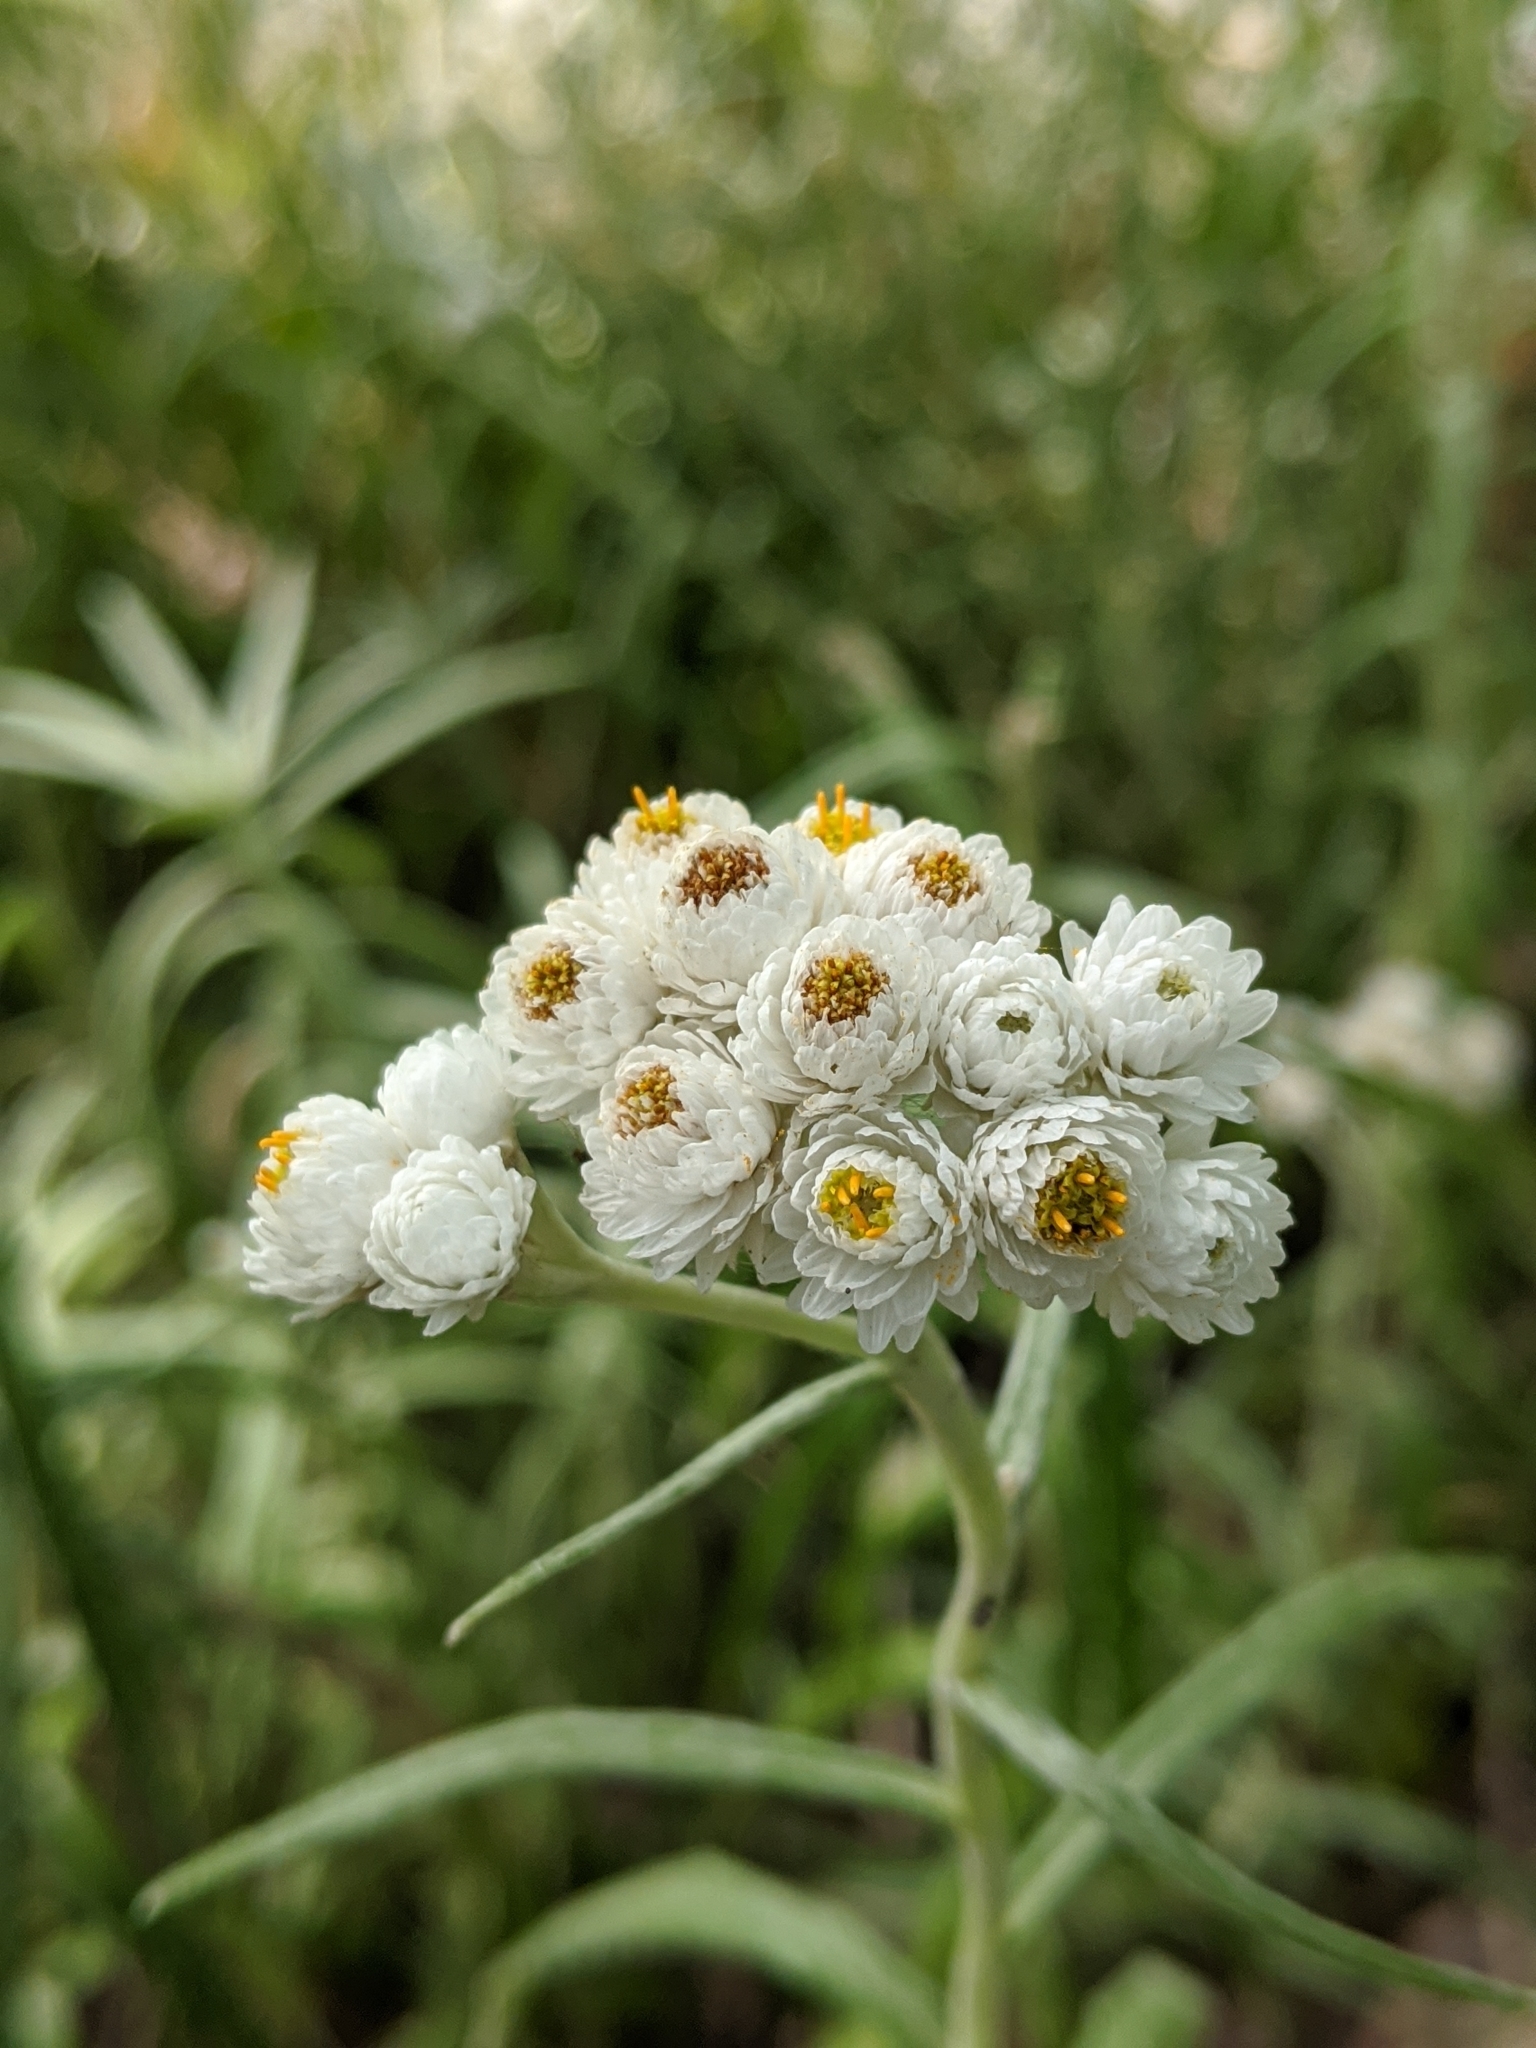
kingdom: Plantae
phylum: Tracheophyta
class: Magnoliopsida
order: Asterales
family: Asteraceae
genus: Anaphalis
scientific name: Anaphalis margaritacea
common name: Pearly everlasting
